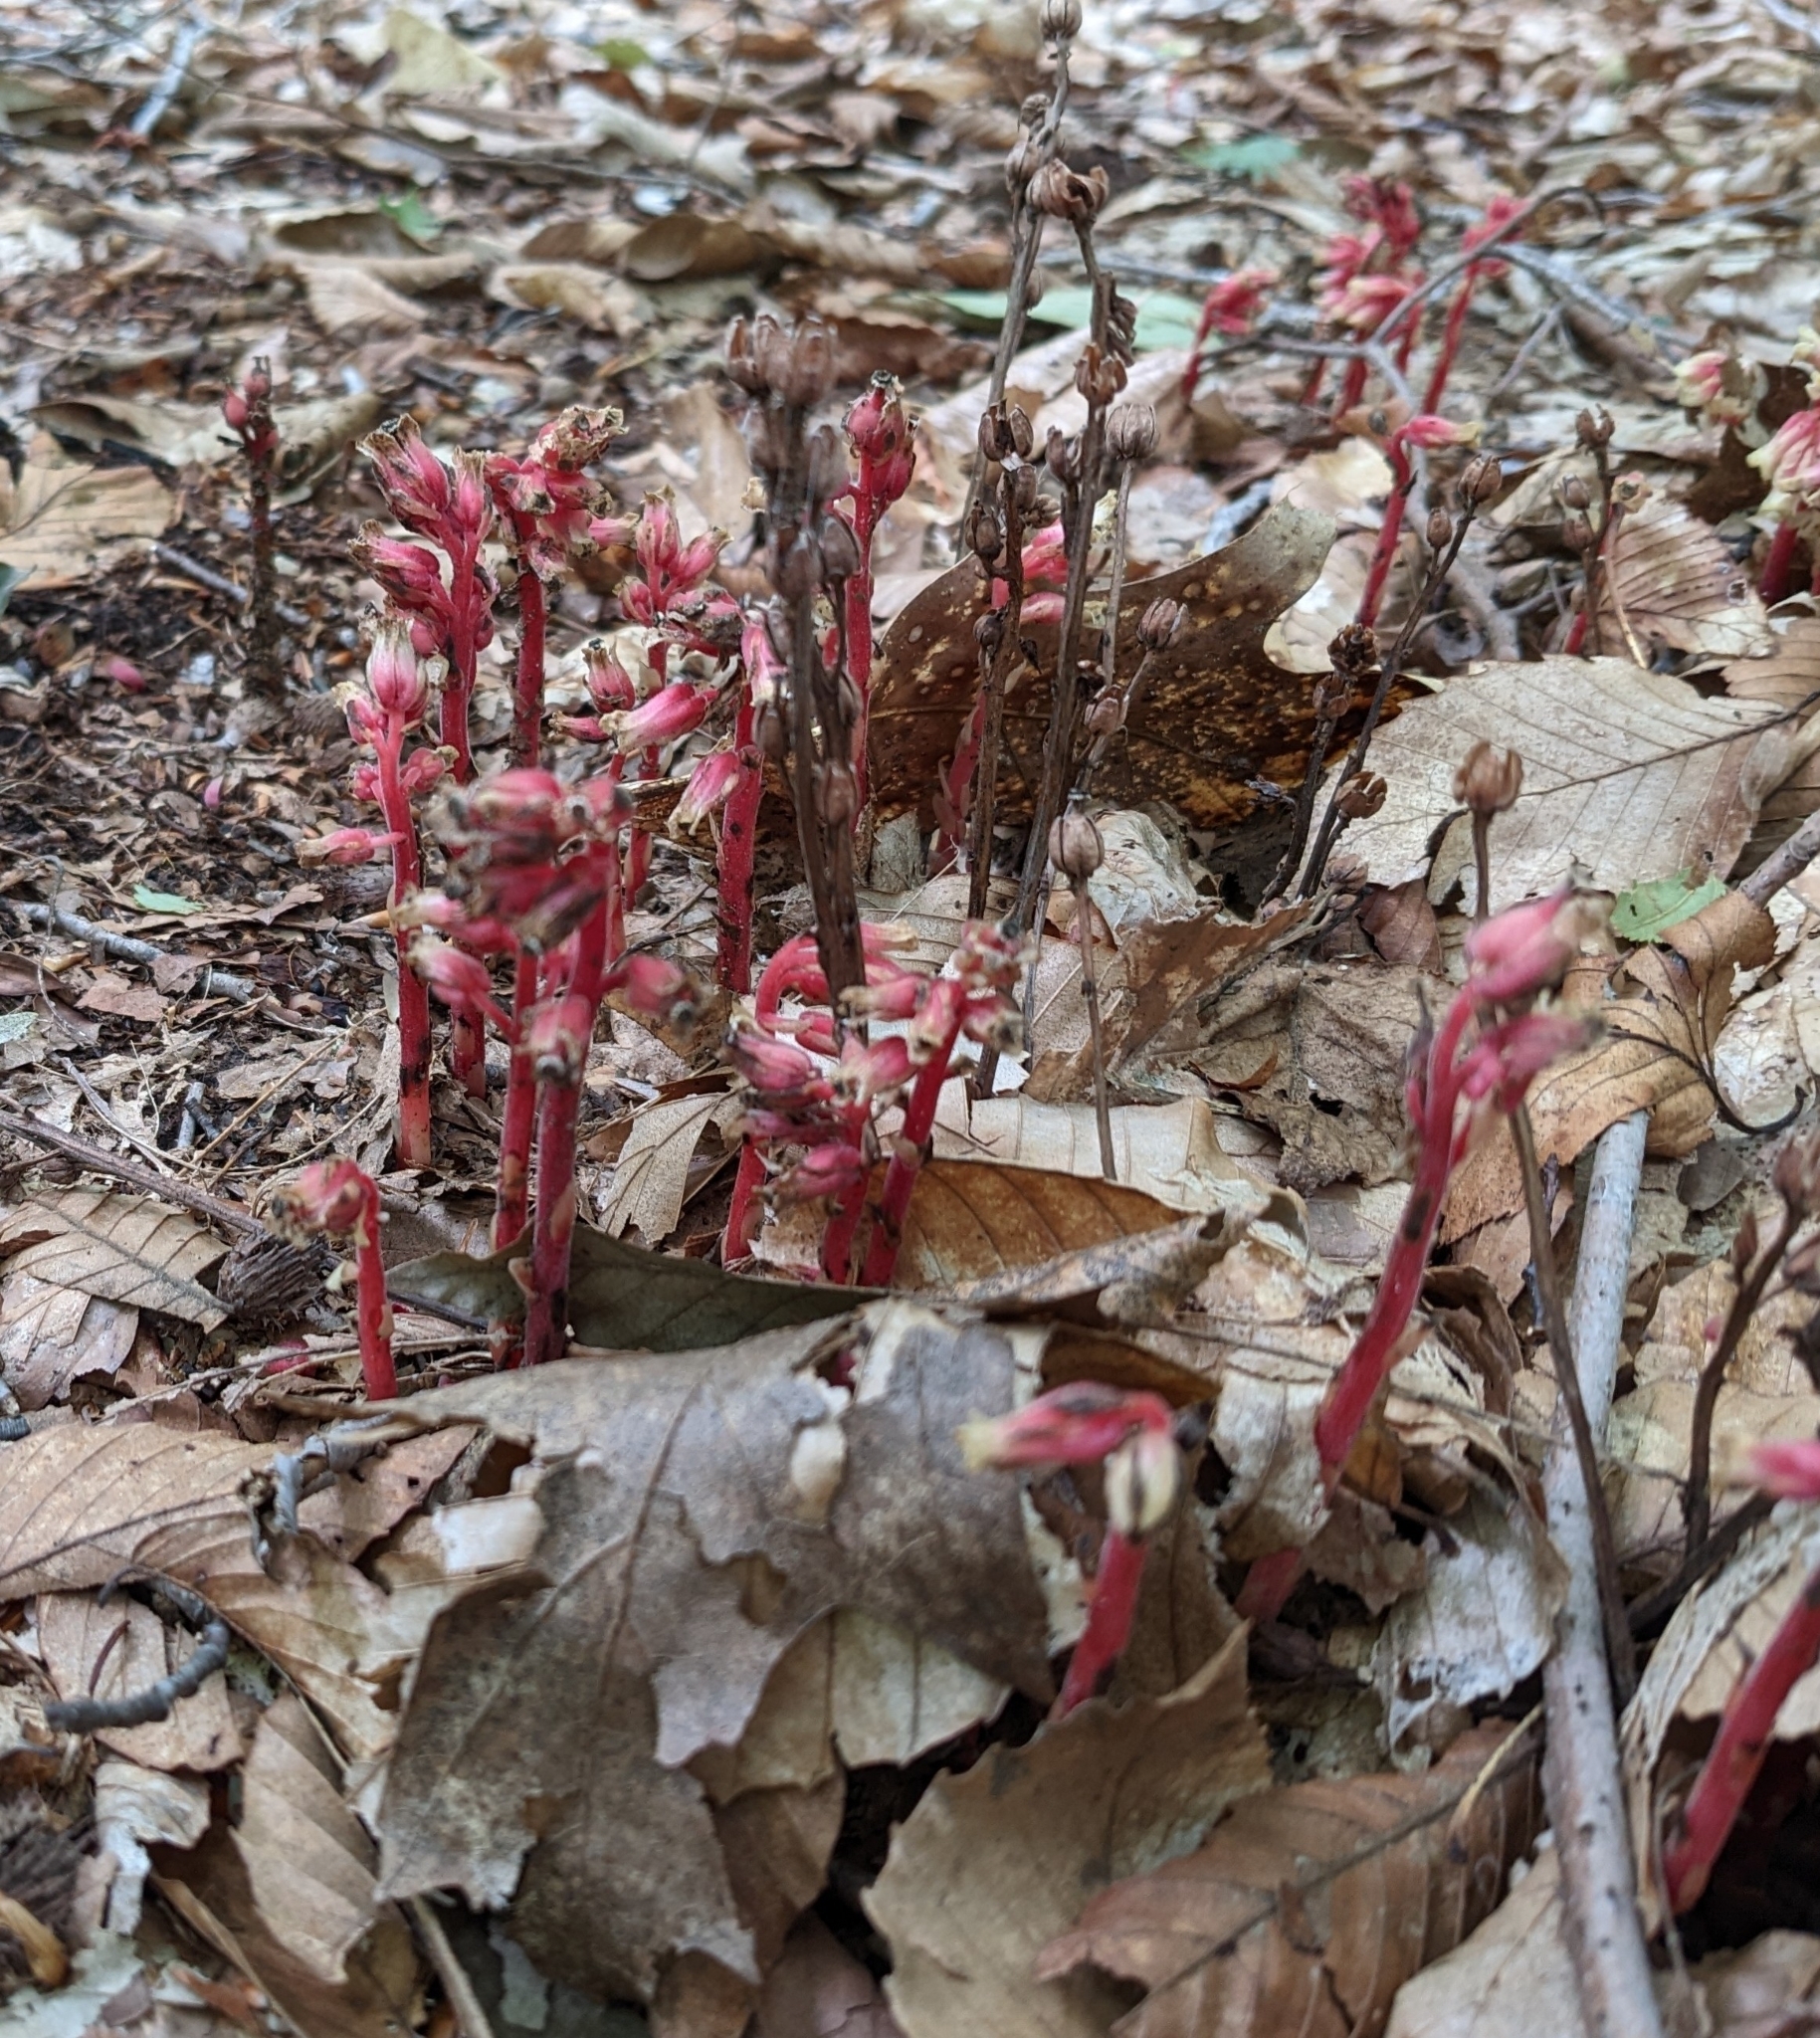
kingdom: Plantae
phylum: Tracheophyta
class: Magnoliopsida
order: Ericales
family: Ericaceae
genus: Hypopitys
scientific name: Hypopitys monotropa
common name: Yellow bird's-nest
